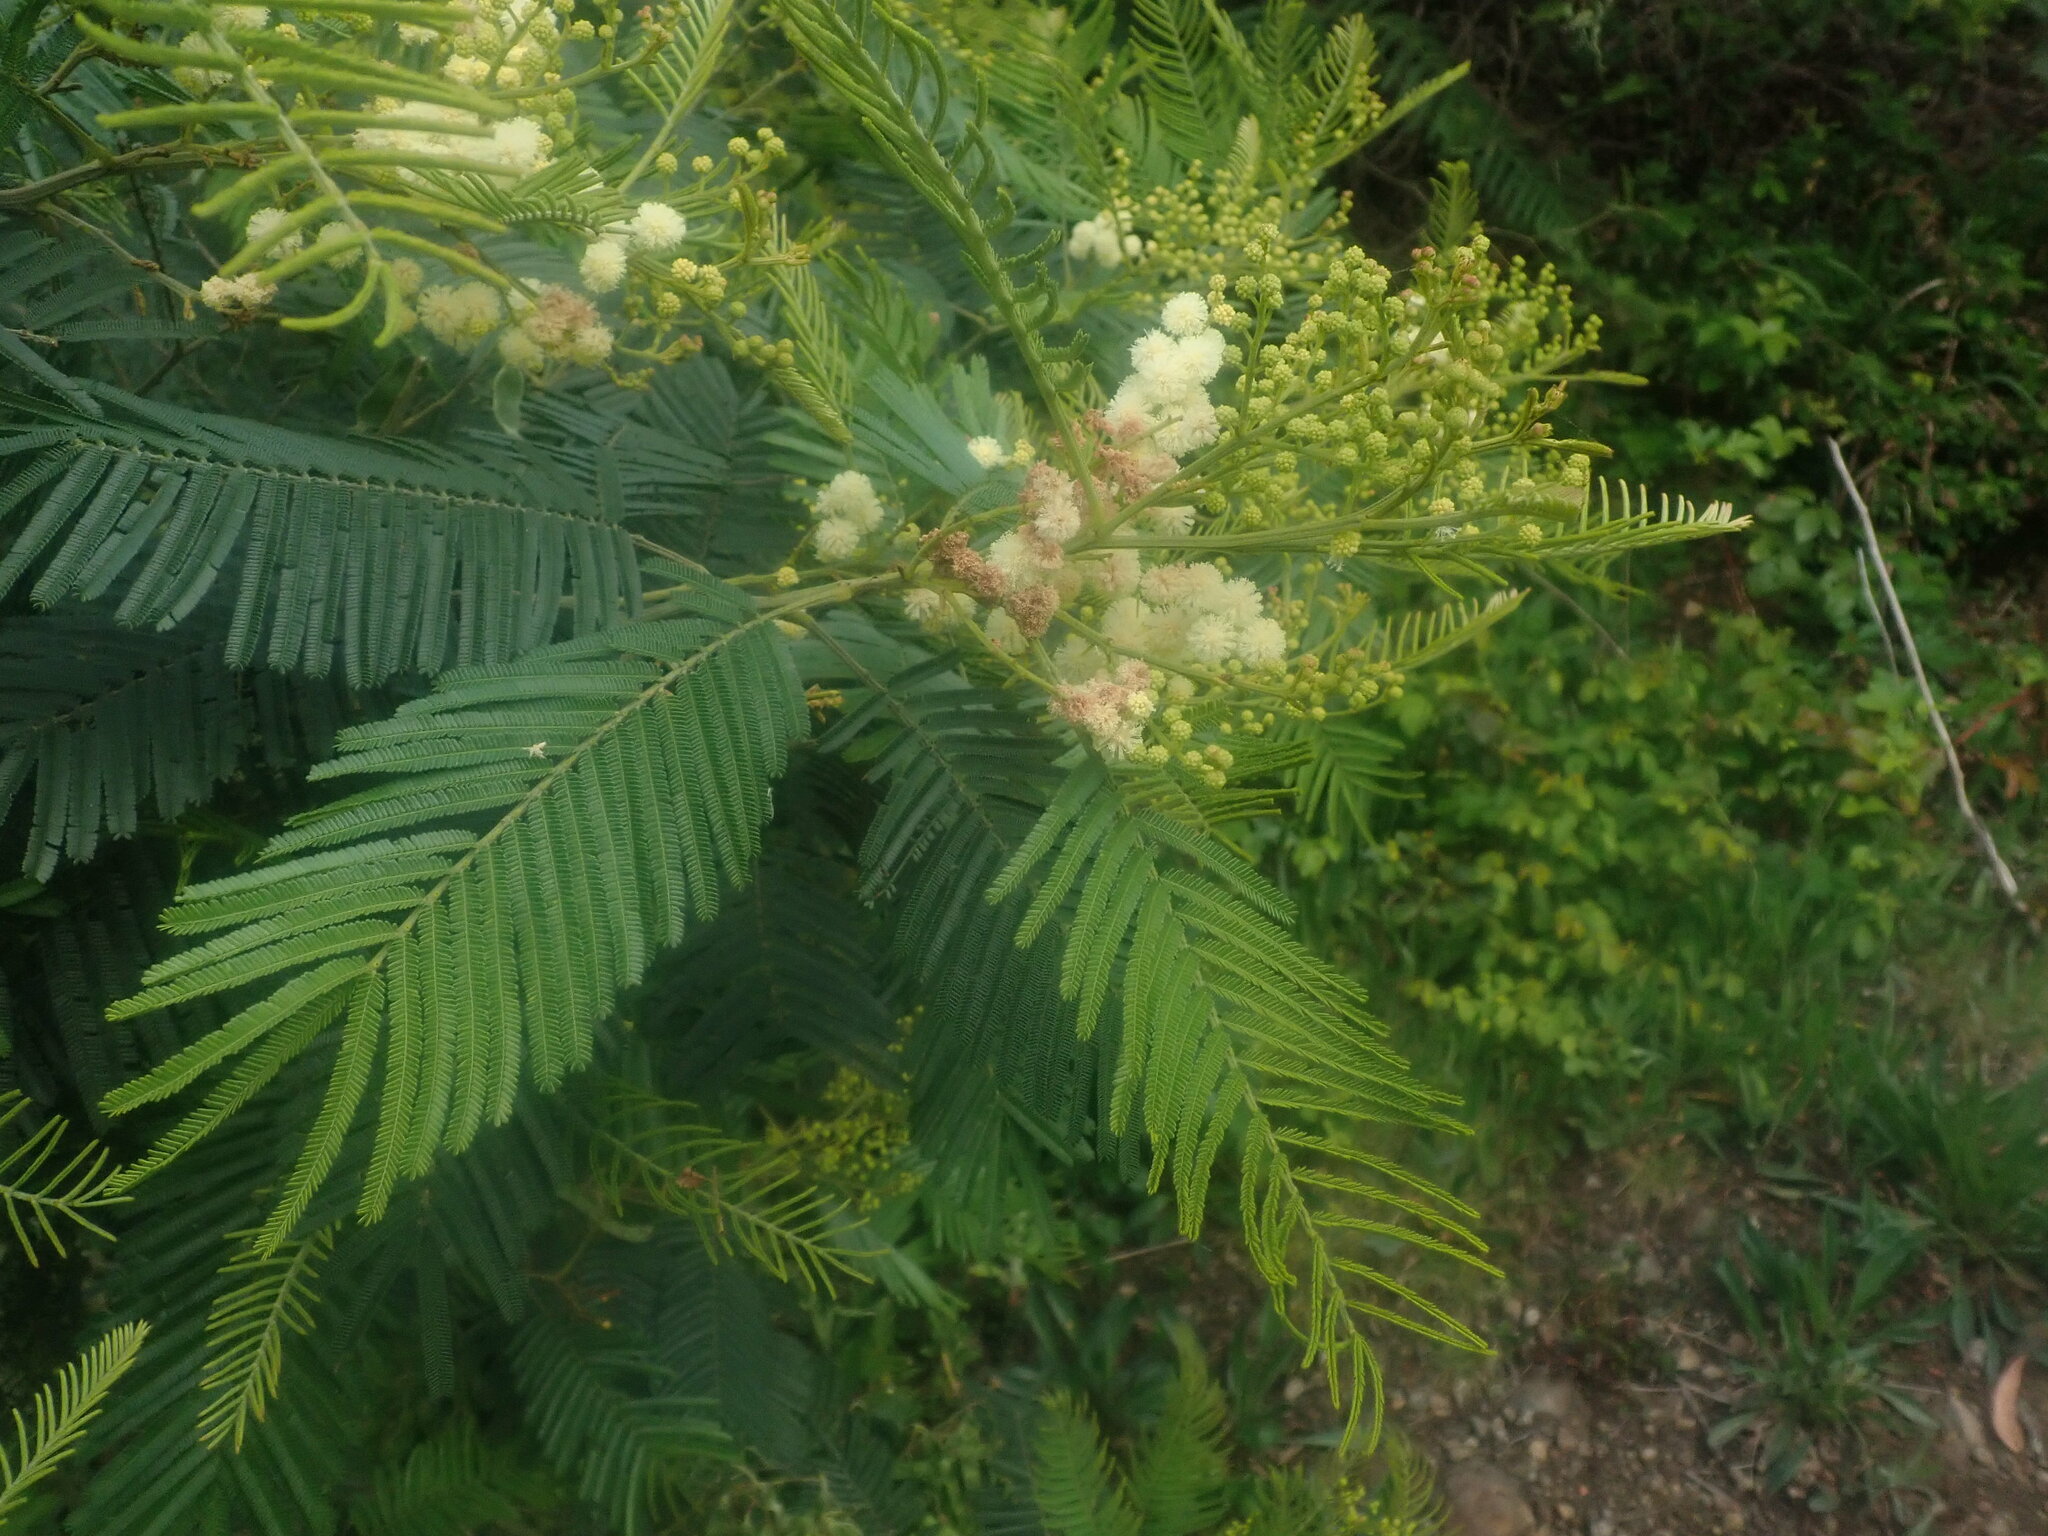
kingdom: Plantae
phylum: Tracheophyta
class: Magnoliopsida
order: Fabales
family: Fabaceae
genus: Acacia
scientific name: Acacia mearnsii
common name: Black wattle
